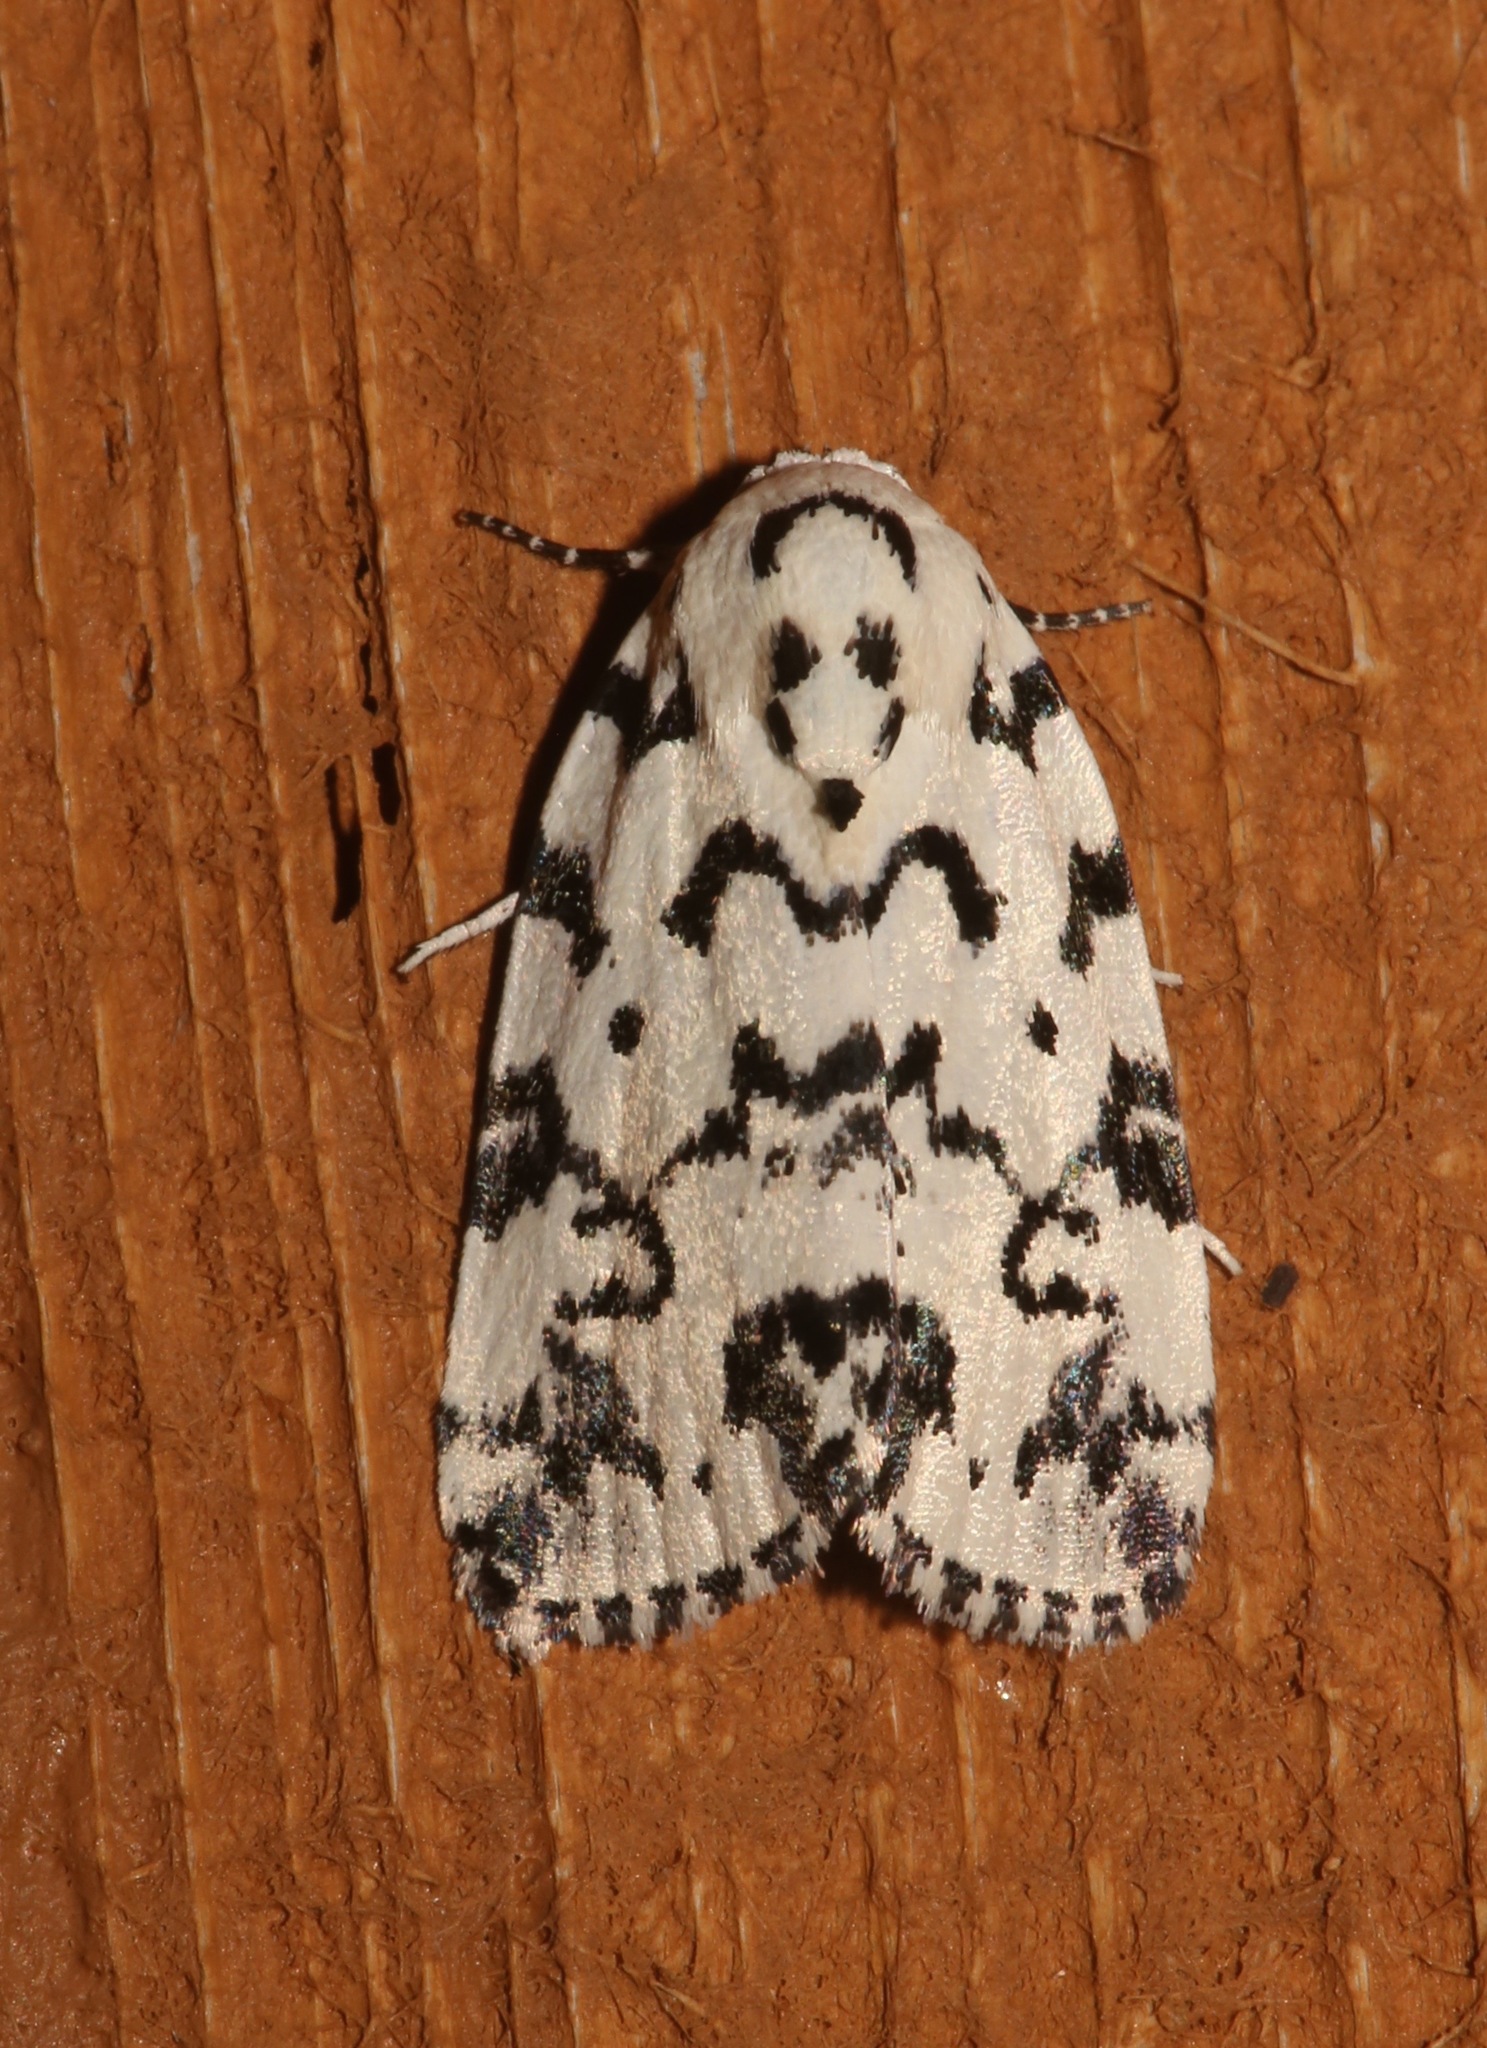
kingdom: Animalia
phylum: Arthropoda
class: Insecta
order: Lepidoptera
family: Noctuidae
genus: Polygrammate
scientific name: Polygrammate hebraeicum
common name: Hebrew moth
